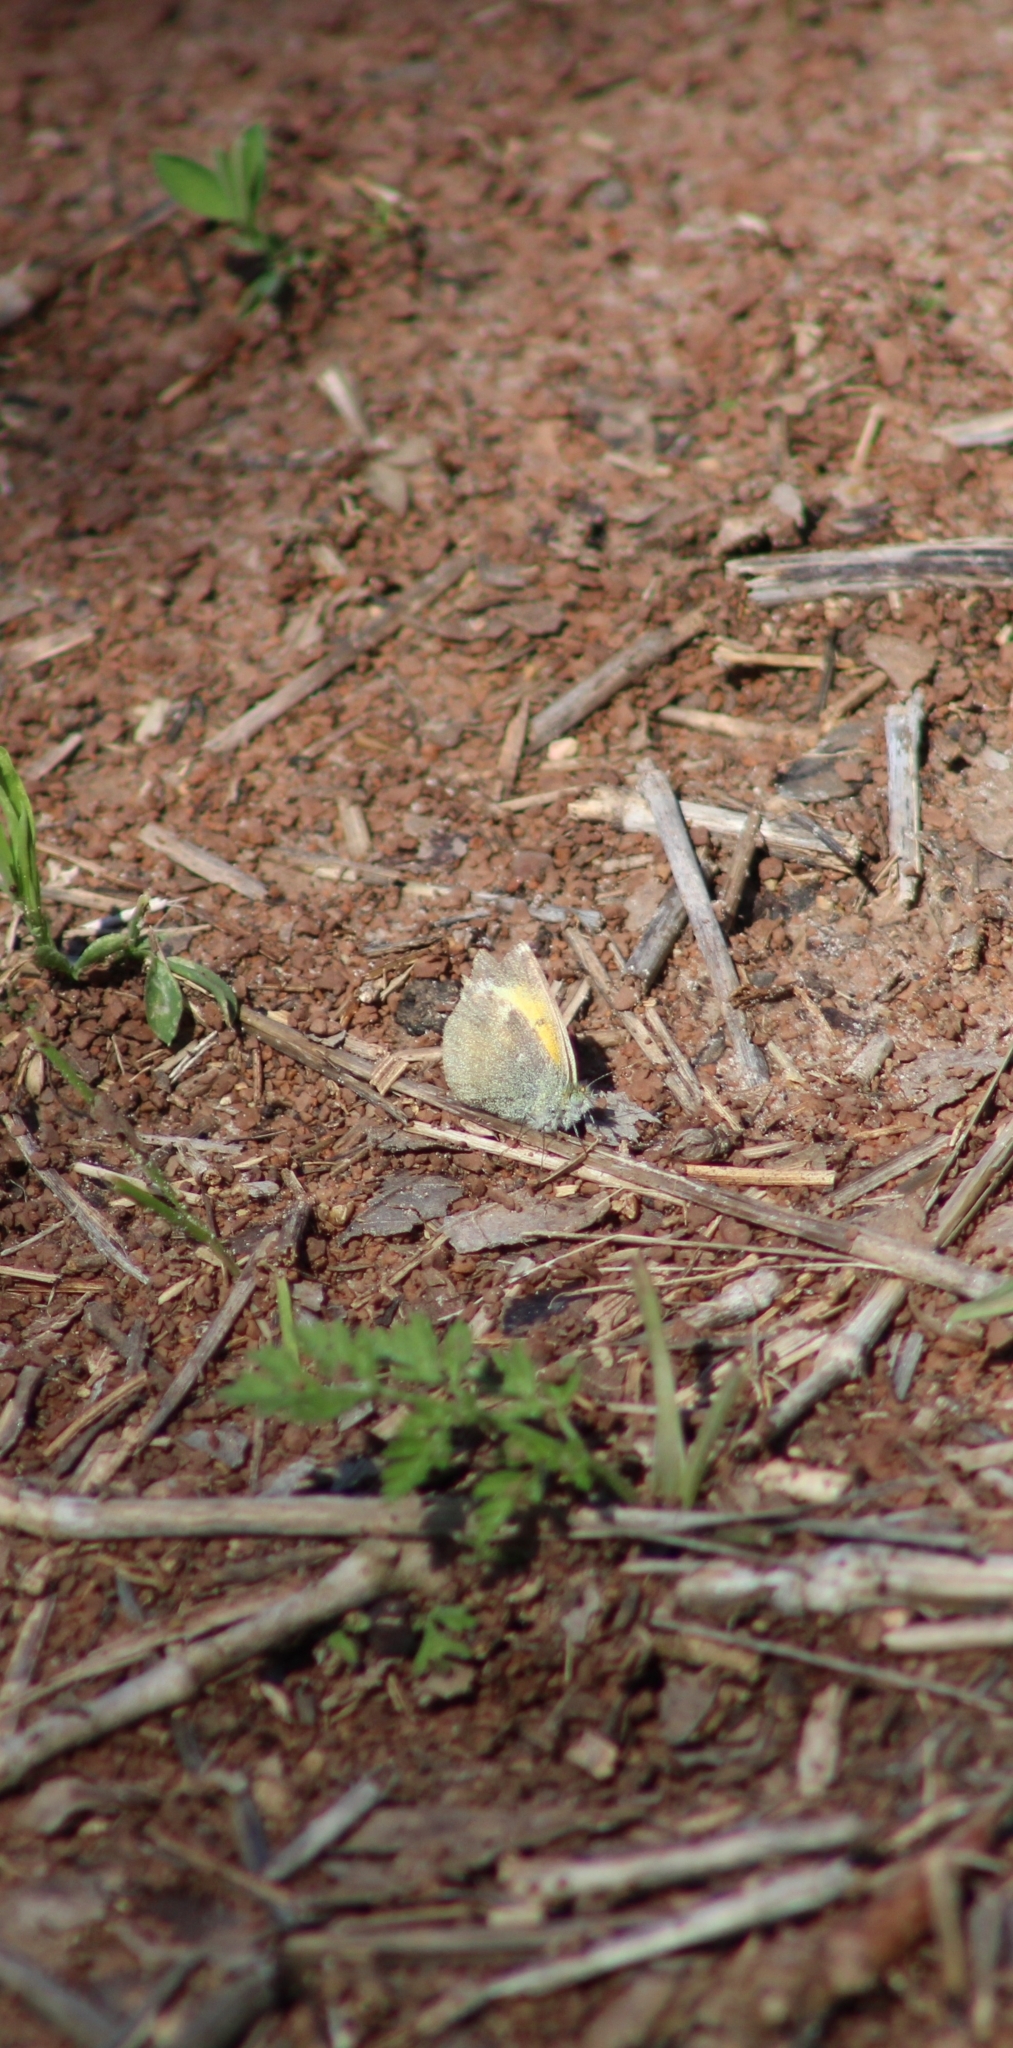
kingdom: Animalia
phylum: Arthropoda
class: Insecta
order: Lepidoptera
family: Pieridae
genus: Nathalis
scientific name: Nathalis iole
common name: Dainty sulphur
